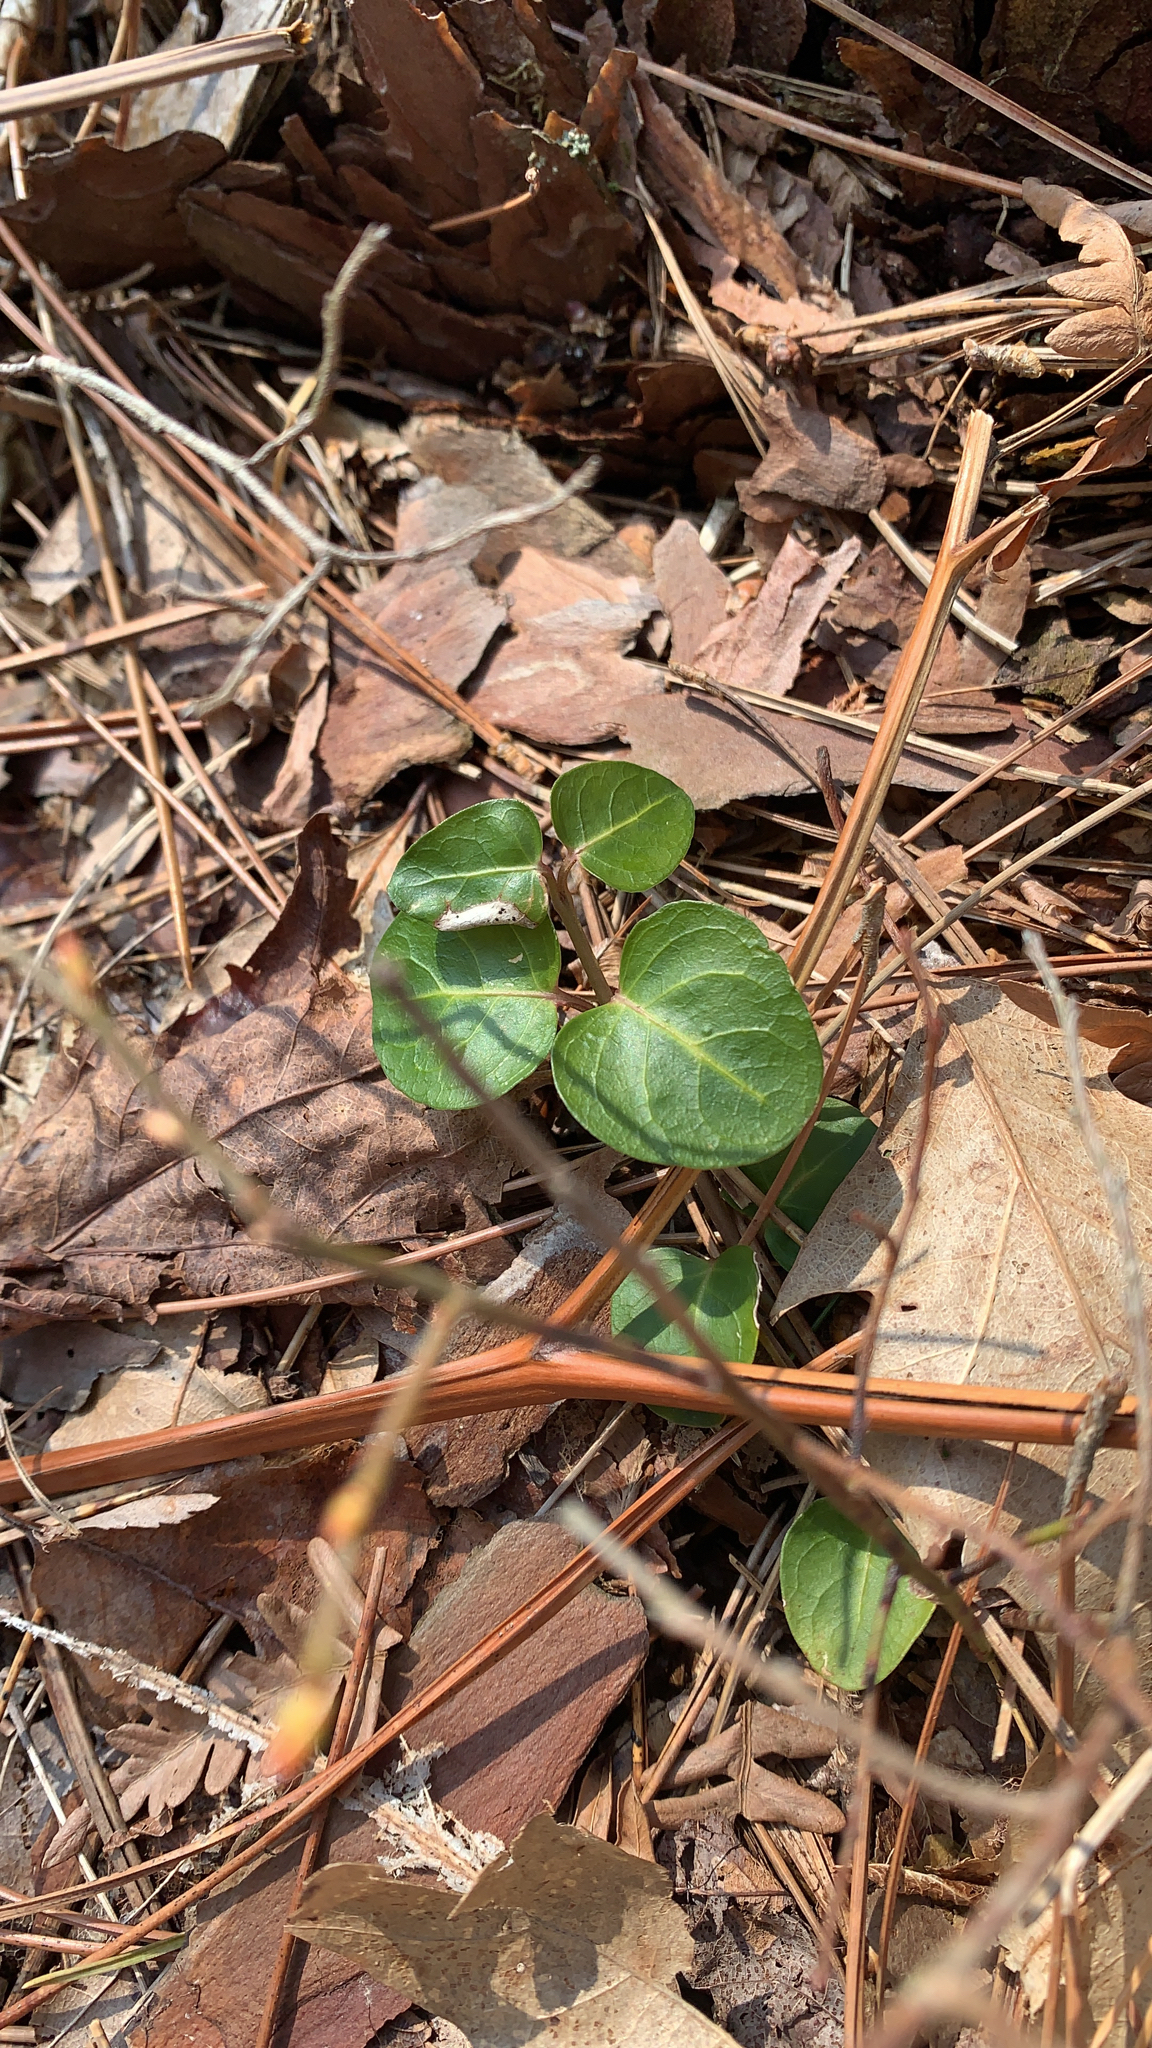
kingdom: Plantae
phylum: Tracheophyta
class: Magnoliopsida
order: Gentianales
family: Rubiaceae
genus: Mitchella
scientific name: Mitchella repens
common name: Partridge-berry
